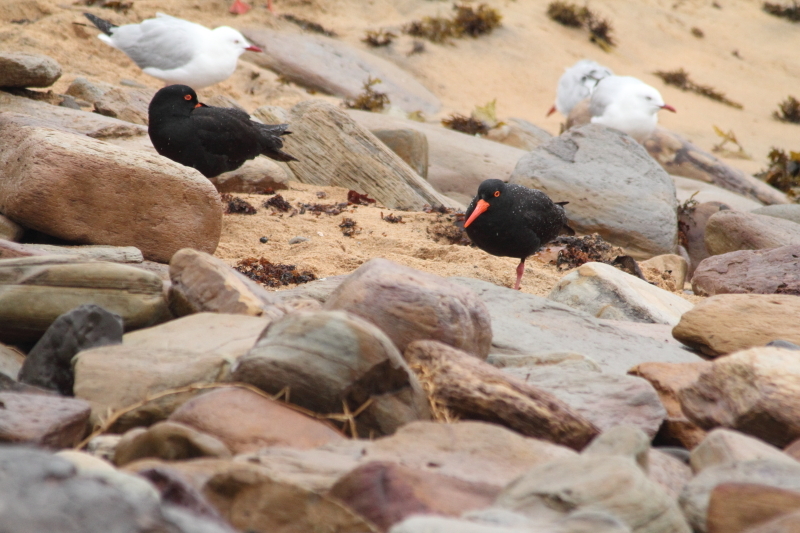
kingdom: Animalia
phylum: Chordata
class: Aves
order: Charadriiformes
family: Haematopodidae
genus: Haematopus
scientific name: Haematopus fuliginosus
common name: Sooty oystercatcher
